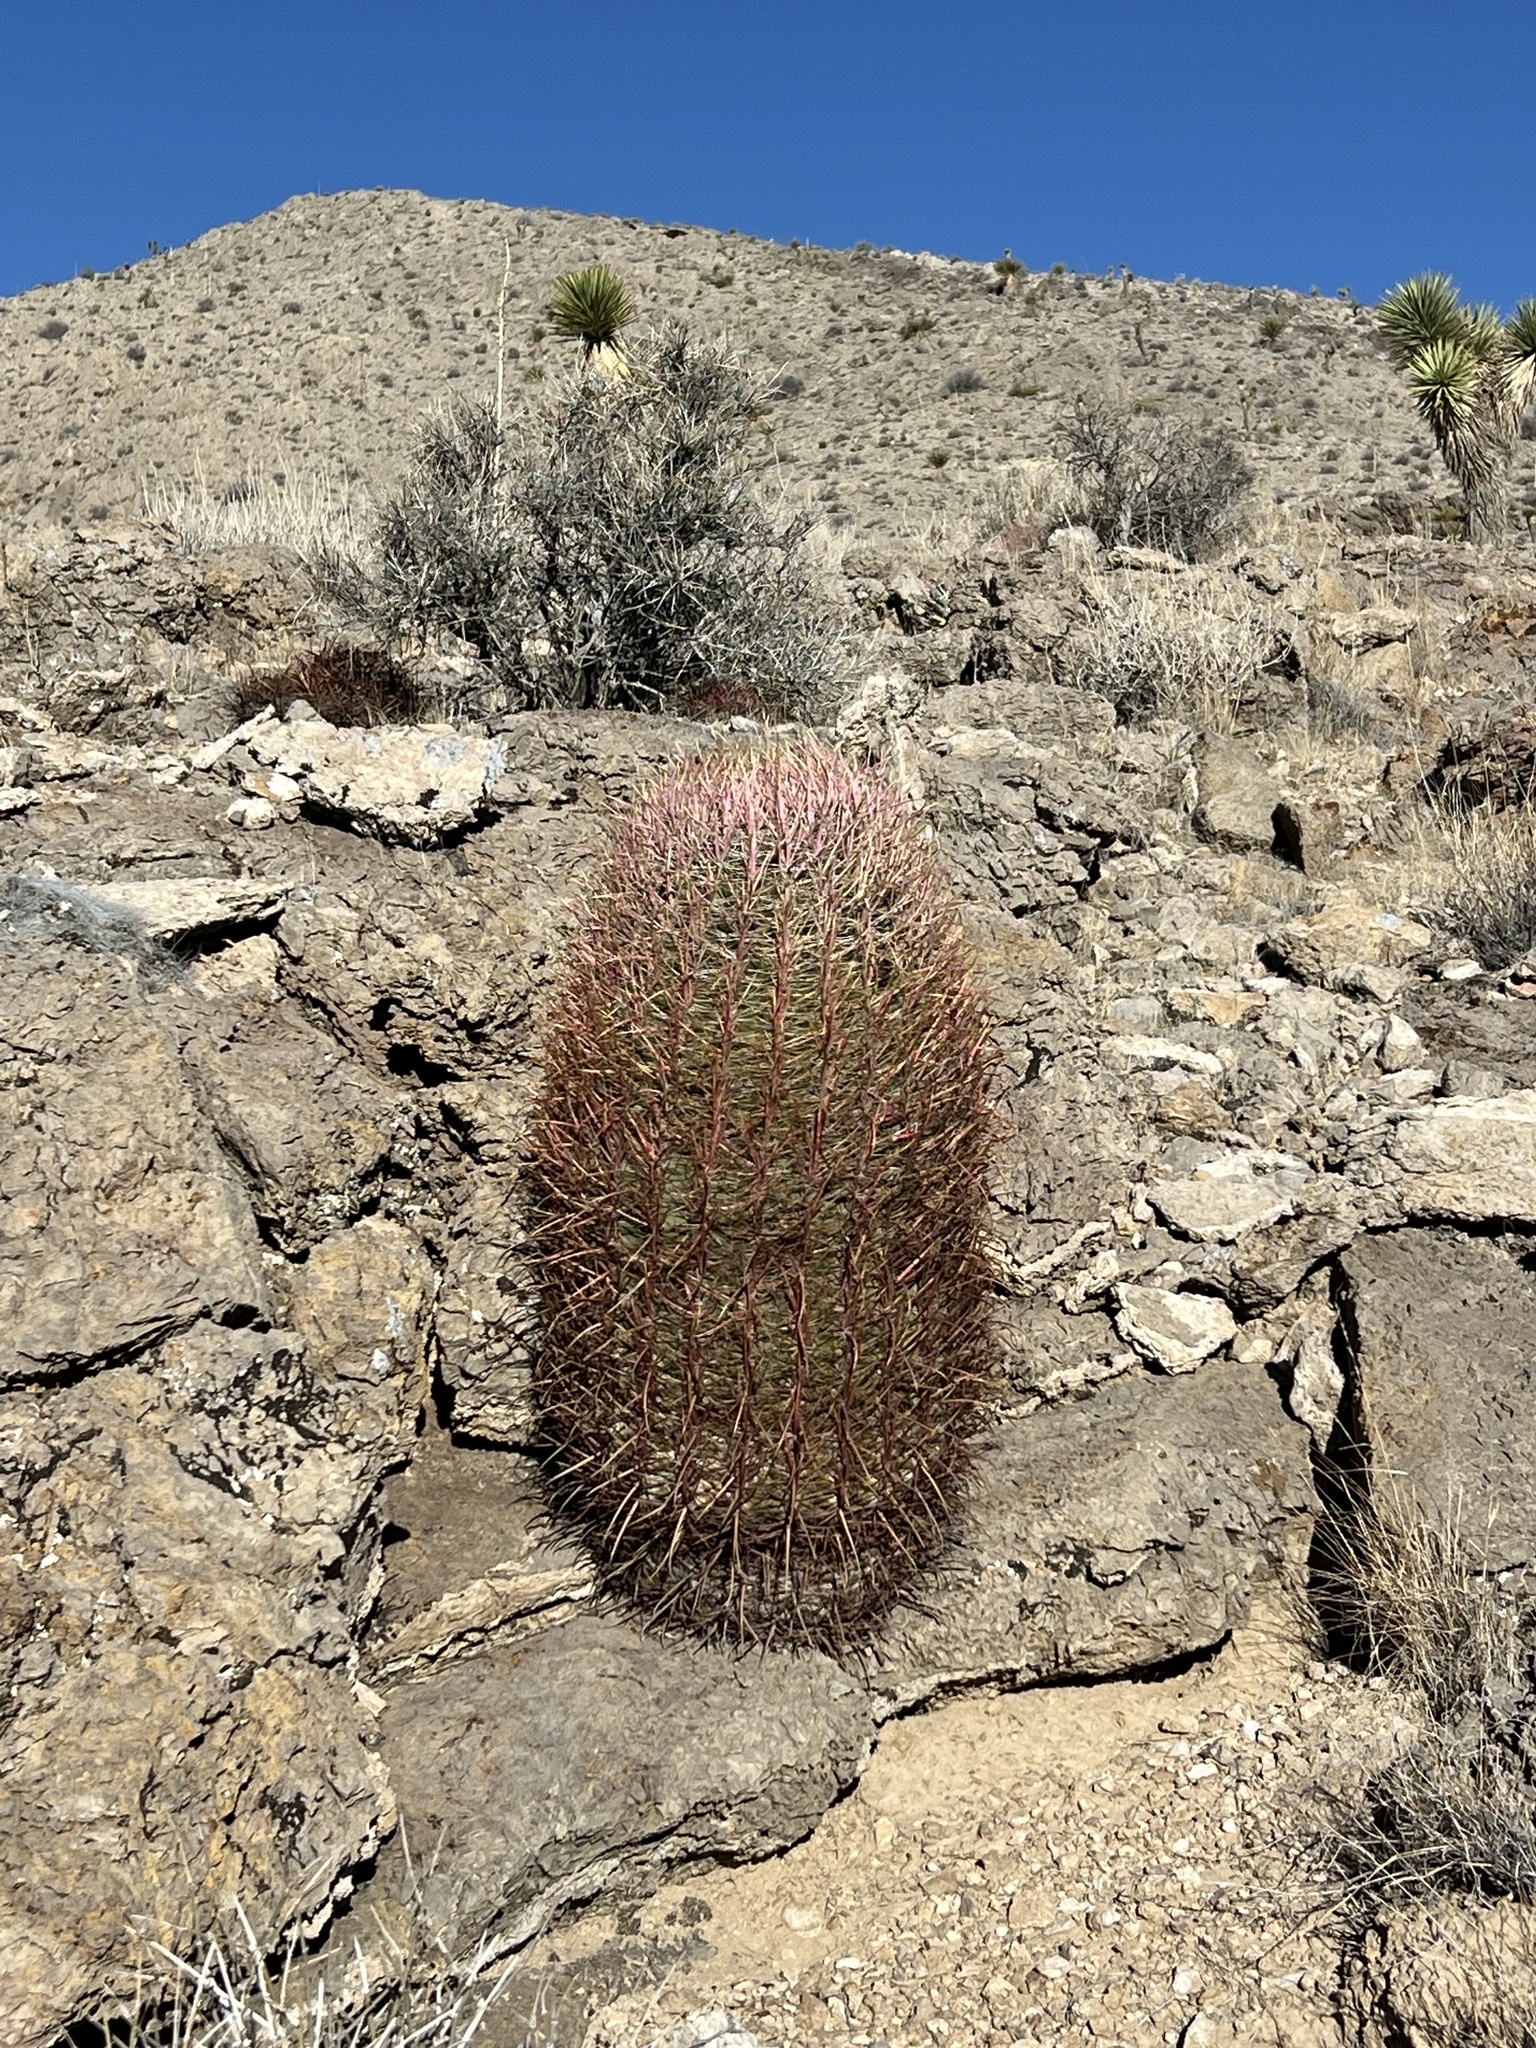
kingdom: Plantae
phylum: Tracheophyta
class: Magnoliopsida
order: Caryophyllales
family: Cactaceae
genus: Ferocactus
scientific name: Ferocactus cylindraceus
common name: California barrel cactus
